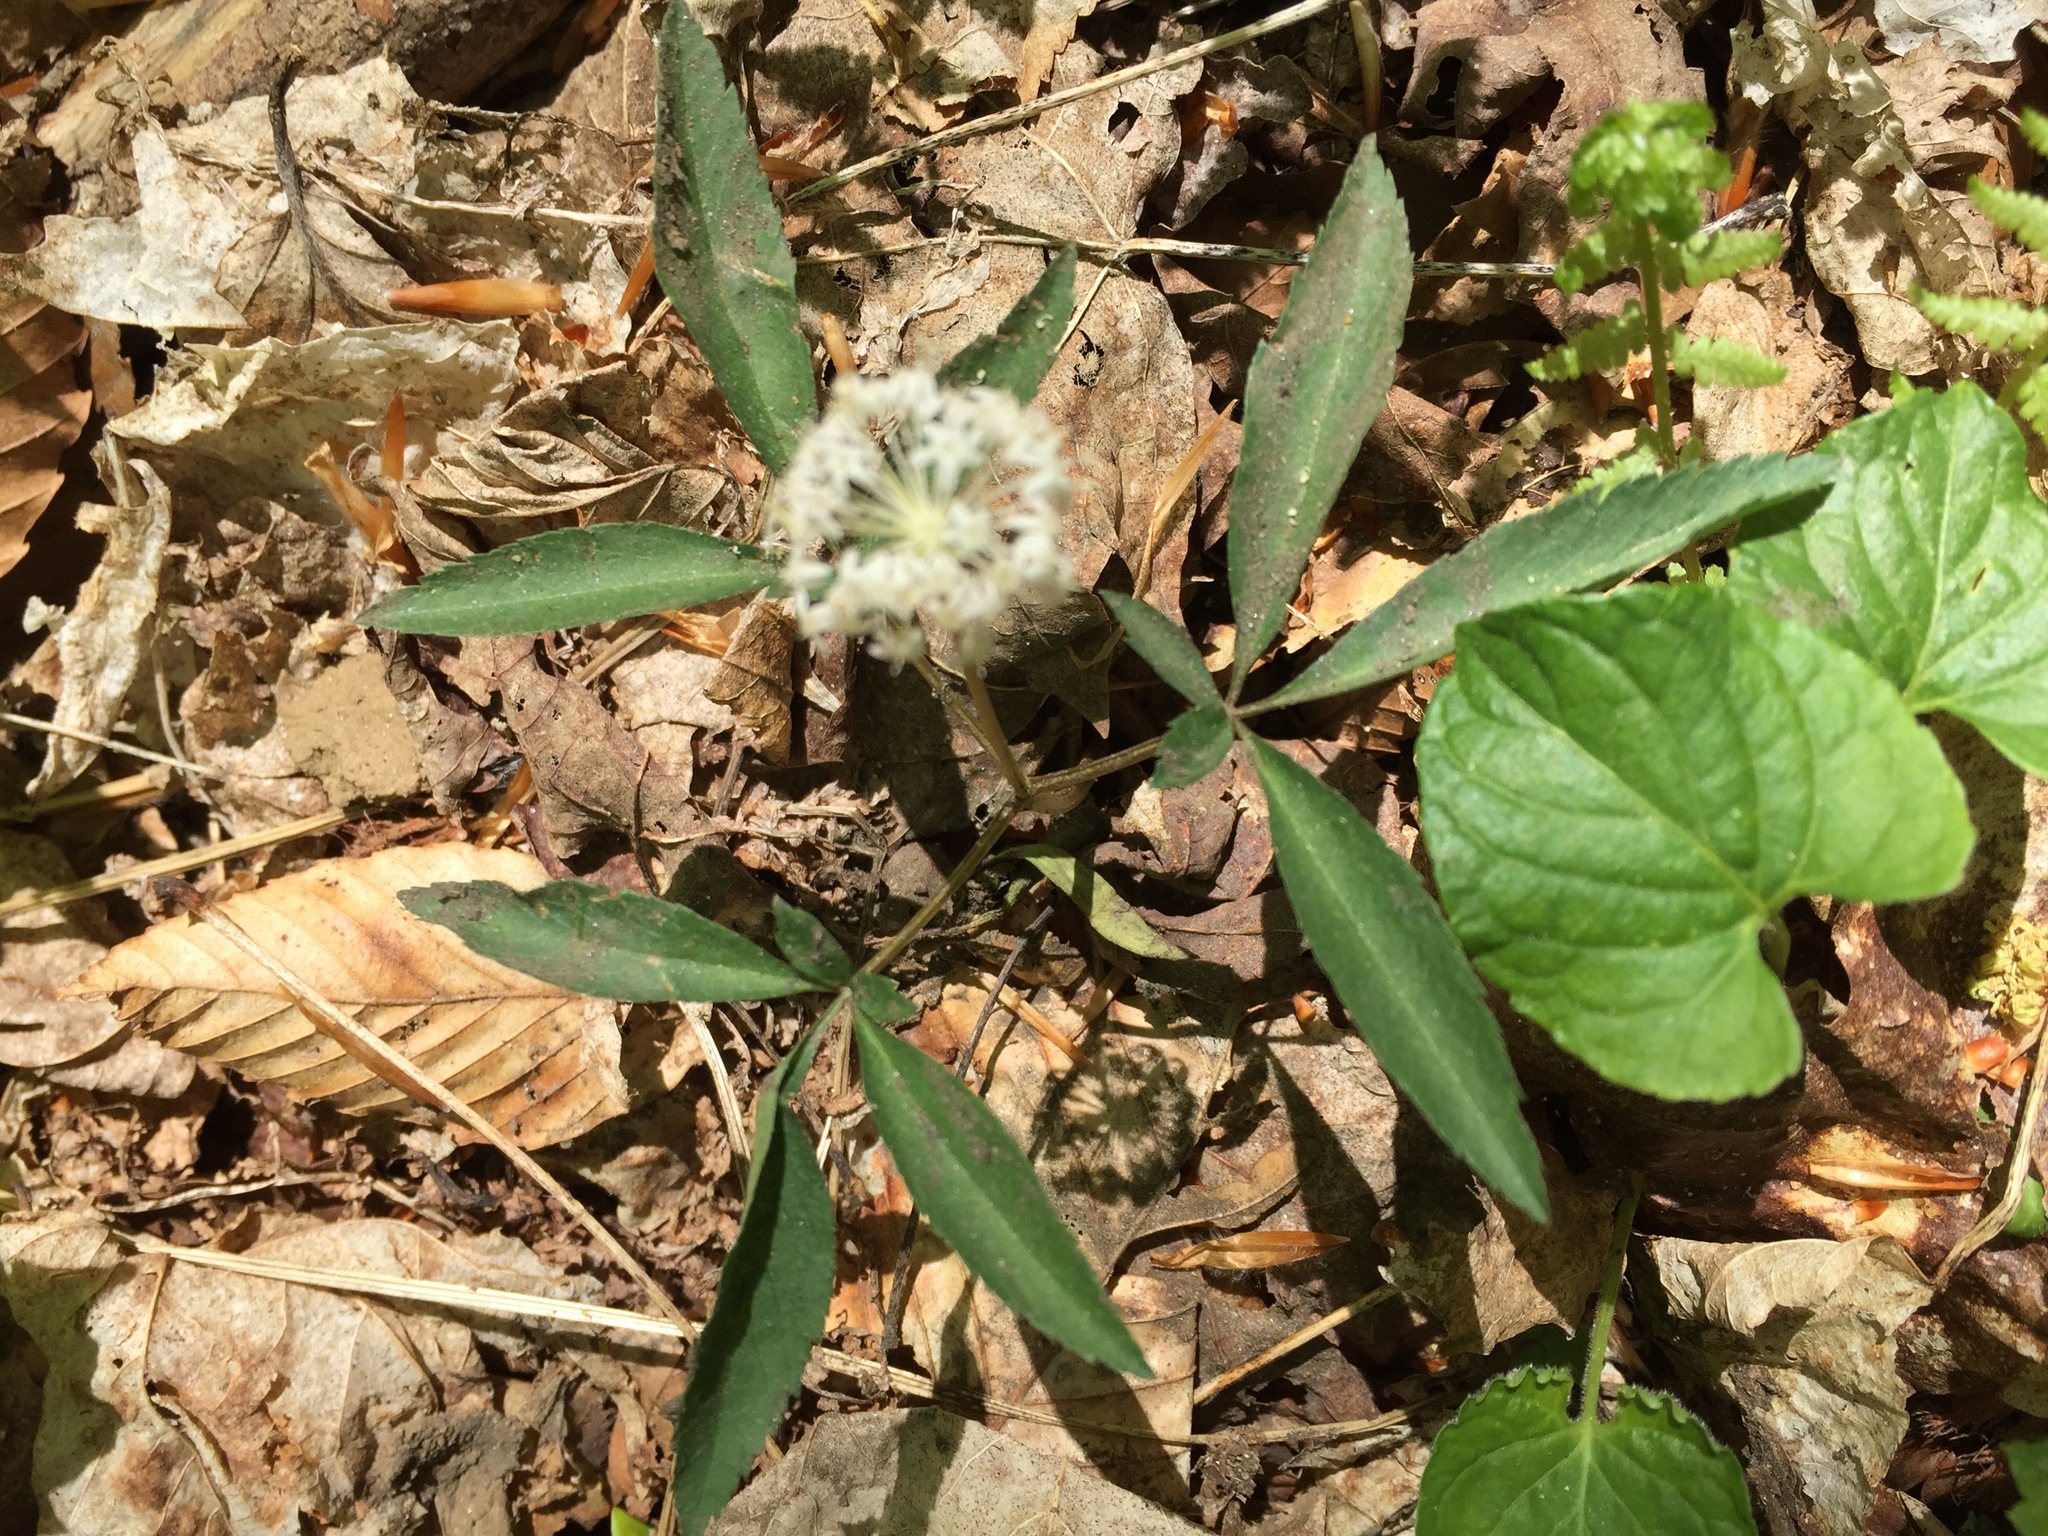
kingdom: Plantae
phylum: Tracheophyta
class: Magnoliopsida
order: Apiales
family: Araliaceae
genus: Panax
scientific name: Panax trifolius
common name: Dwarf ginseng
